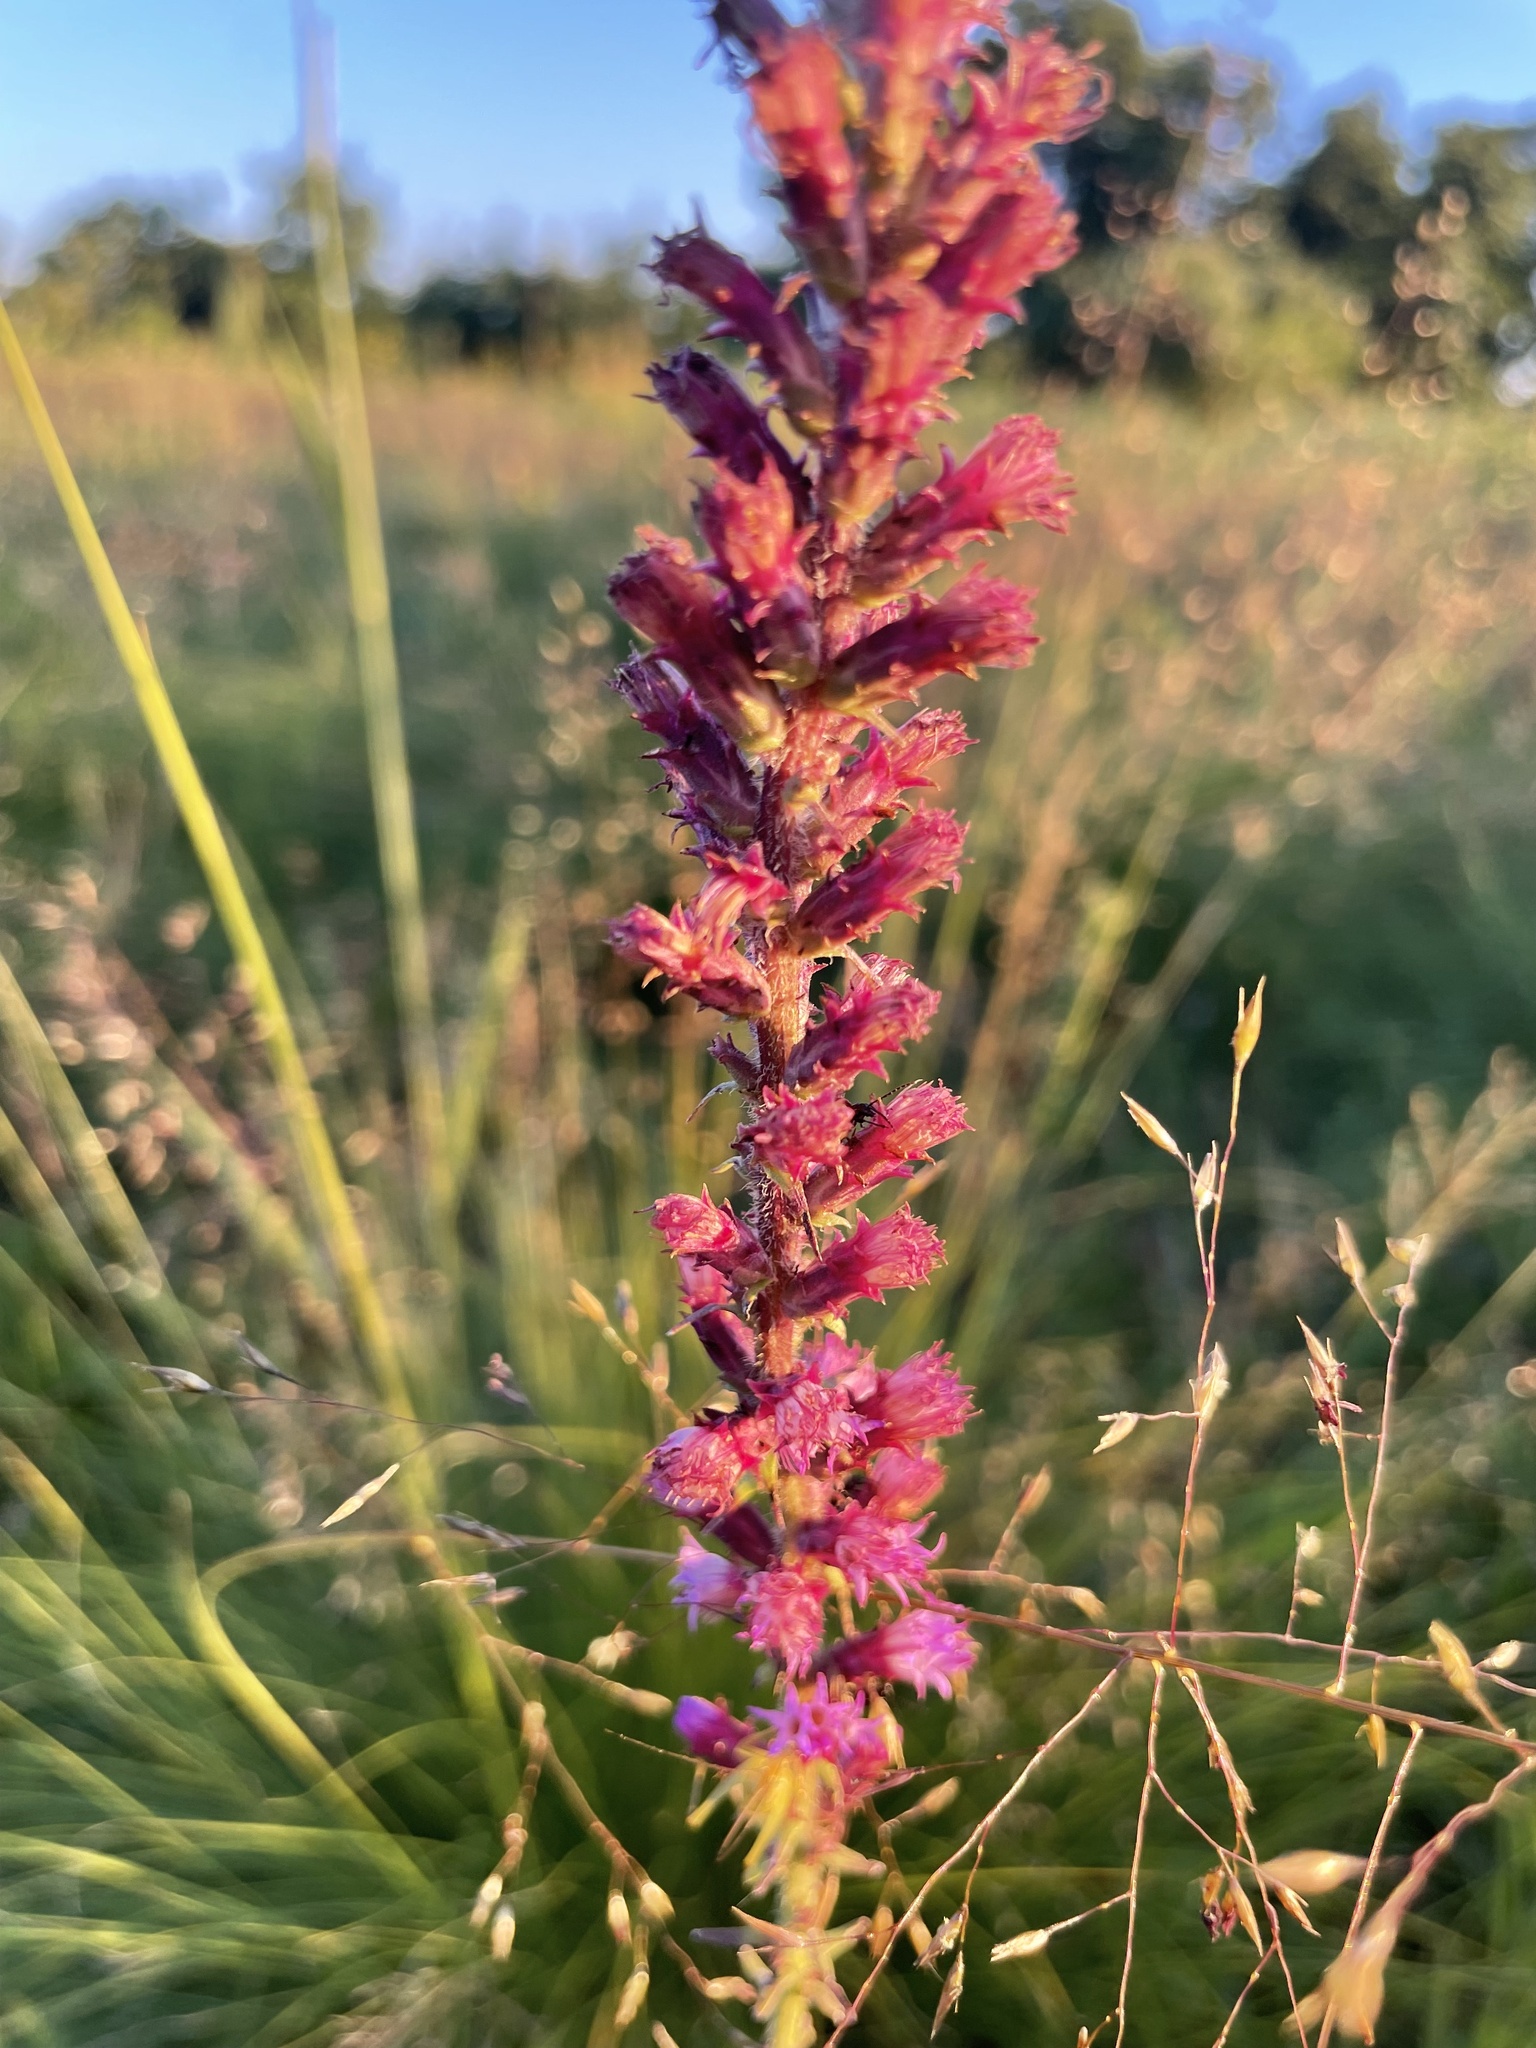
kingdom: Plantae
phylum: Tracheophyta
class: Magnoliopsida
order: Asterales
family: Asteraceae
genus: Liatris
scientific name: Liatris pycnostachya
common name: Cattail gayfeather
